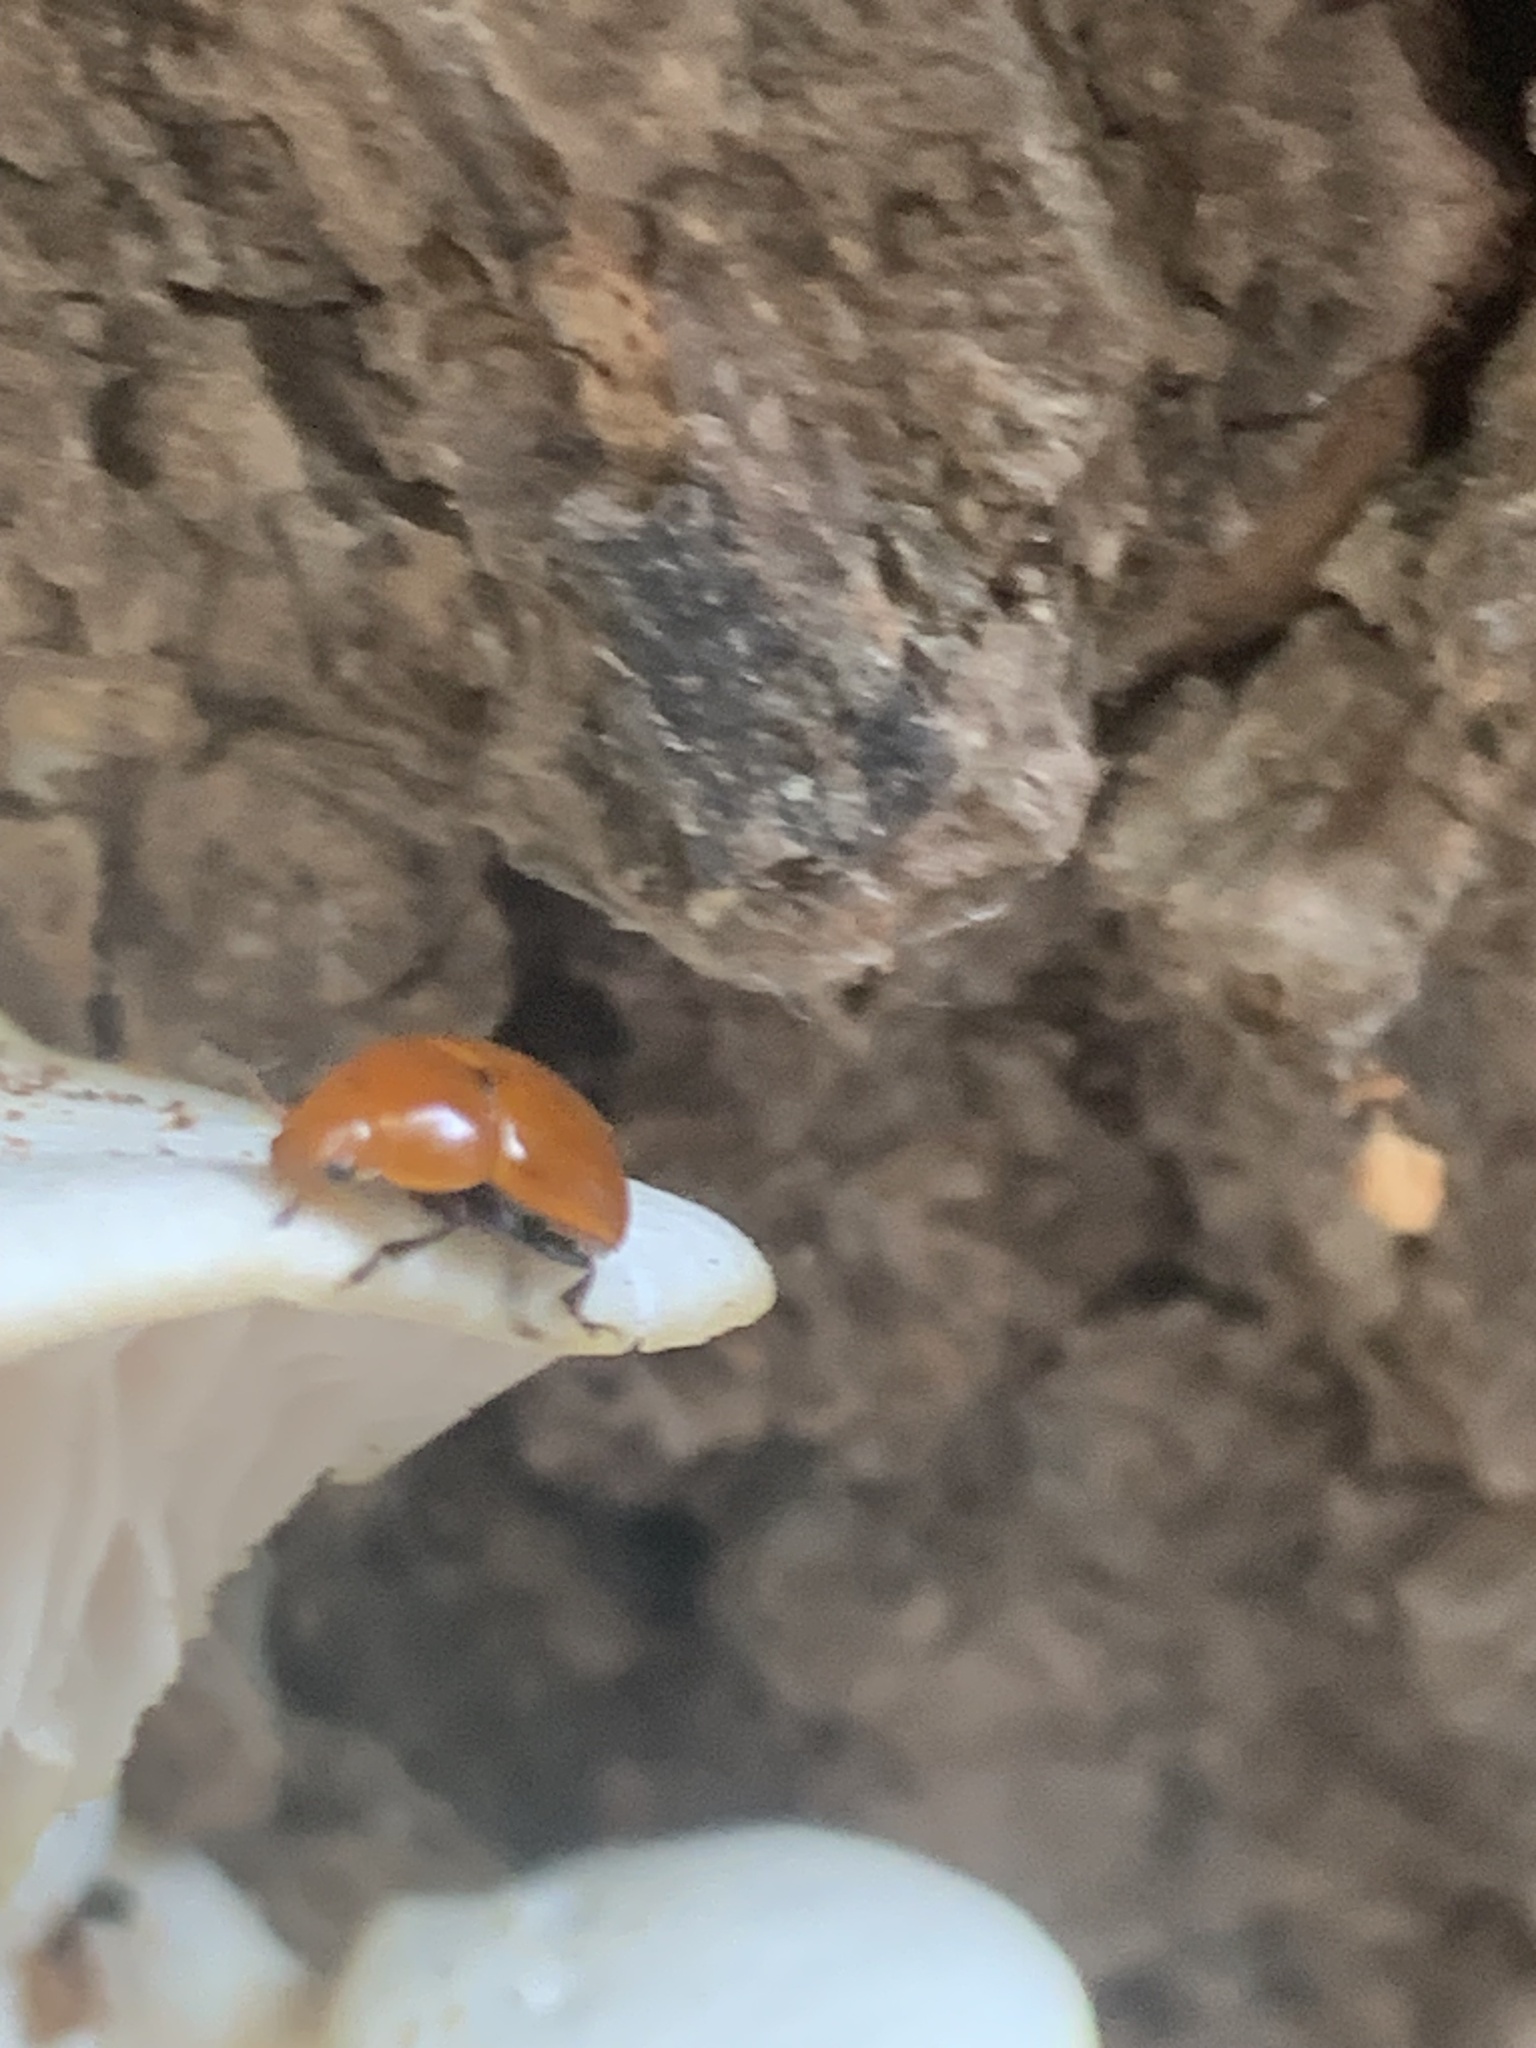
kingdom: Animalia
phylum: Arthropoda
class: Insecta
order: Coleoptera
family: Erotylidae
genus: Mycomystes
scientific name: Mycomystes nigriventris
